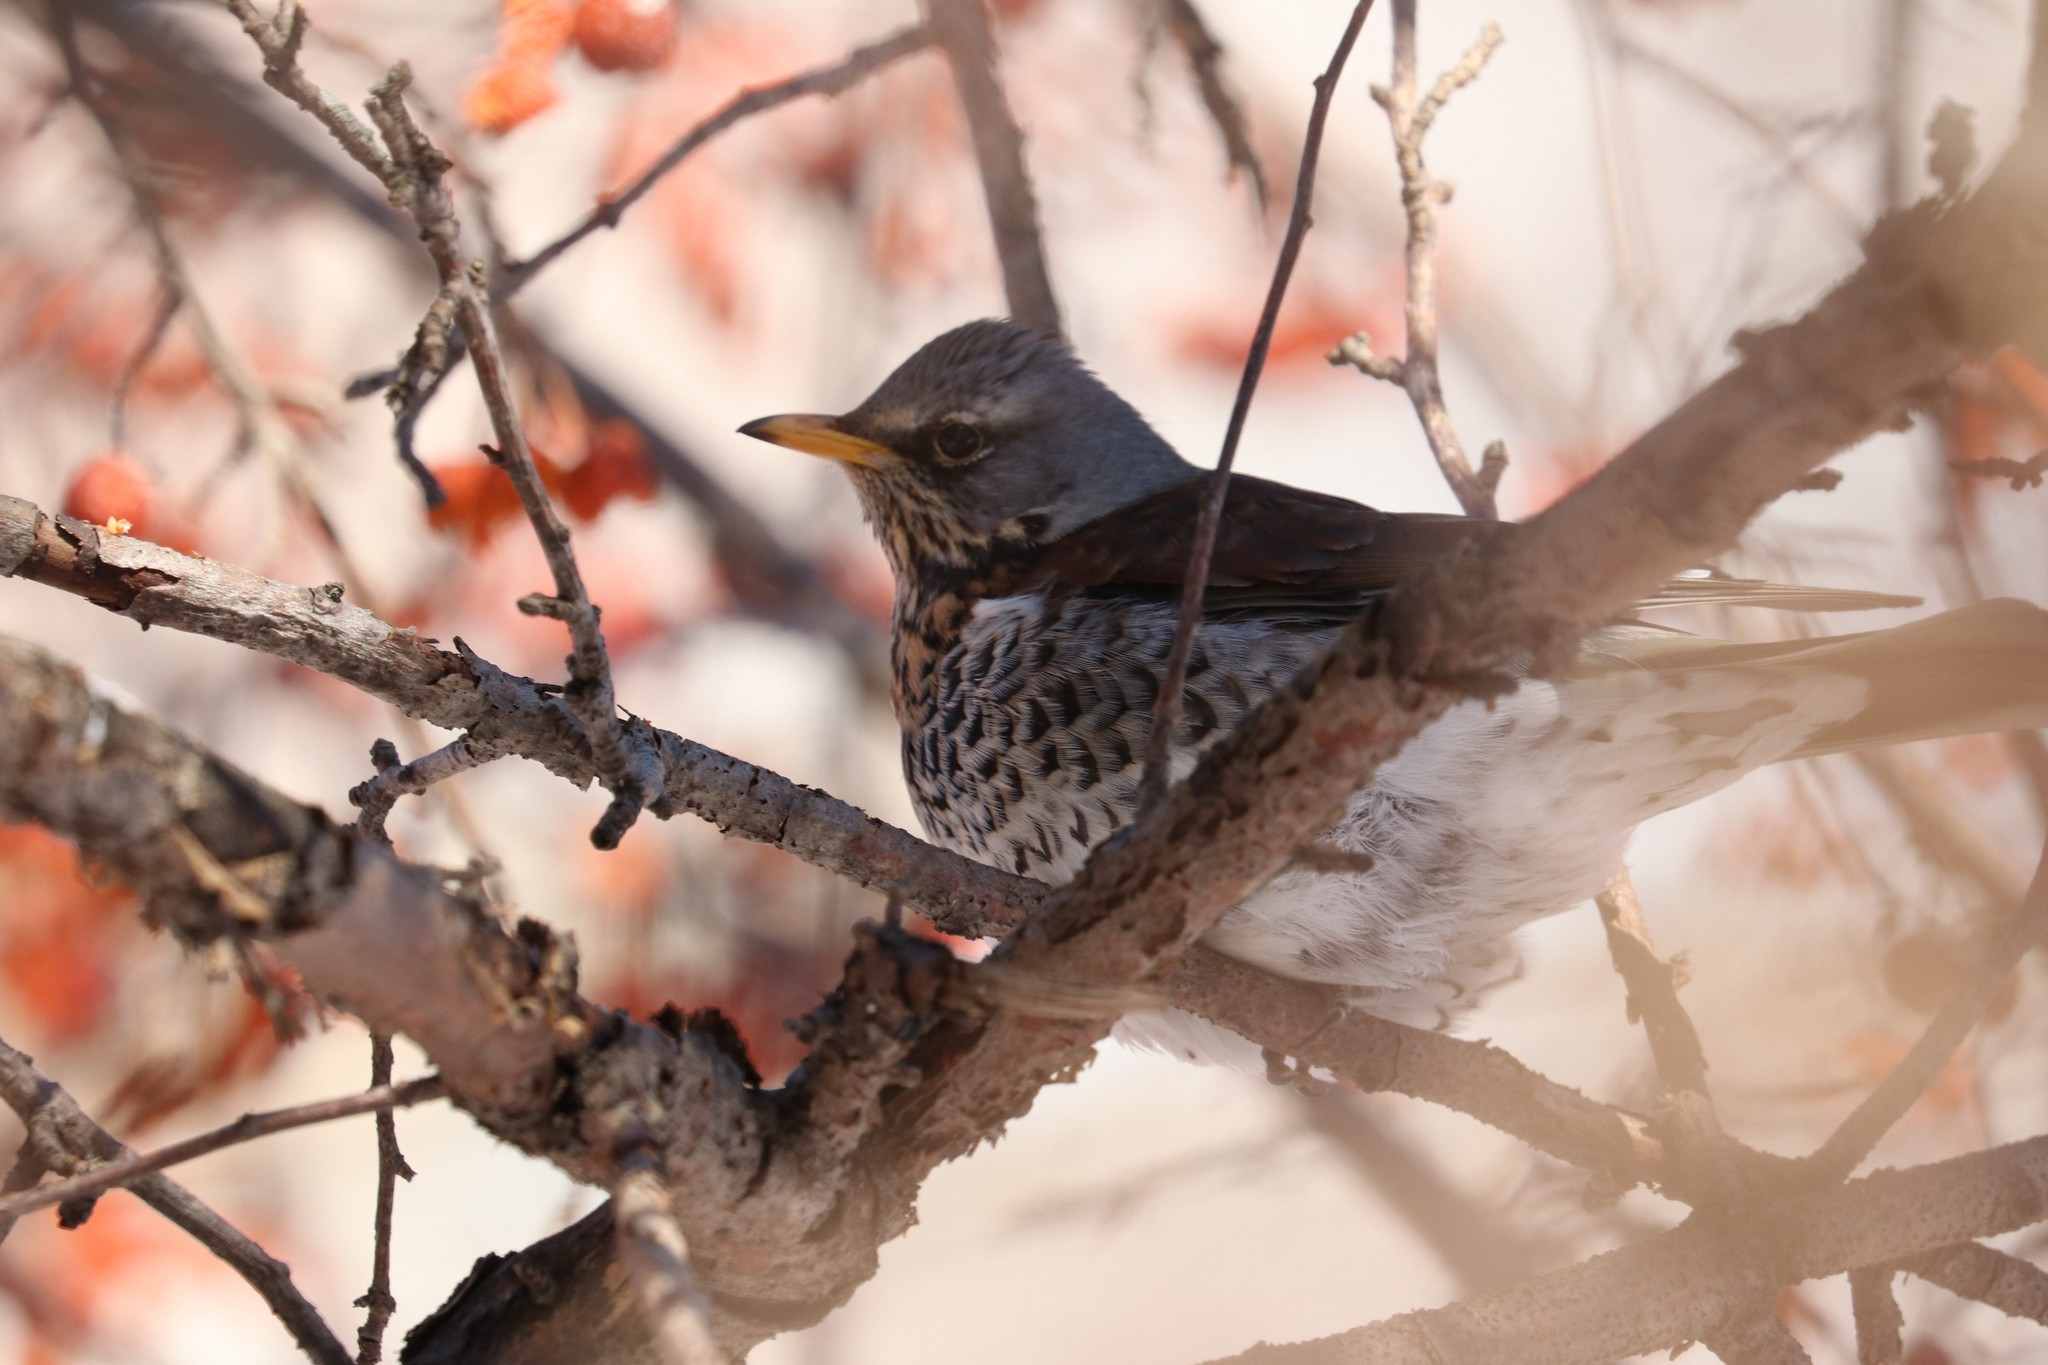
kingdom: Animalia
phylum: Chordata
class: Aves
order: Passeriformes
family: Turdidae
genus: Turdus
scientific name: Turdus pilaris
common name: Fieldfare
